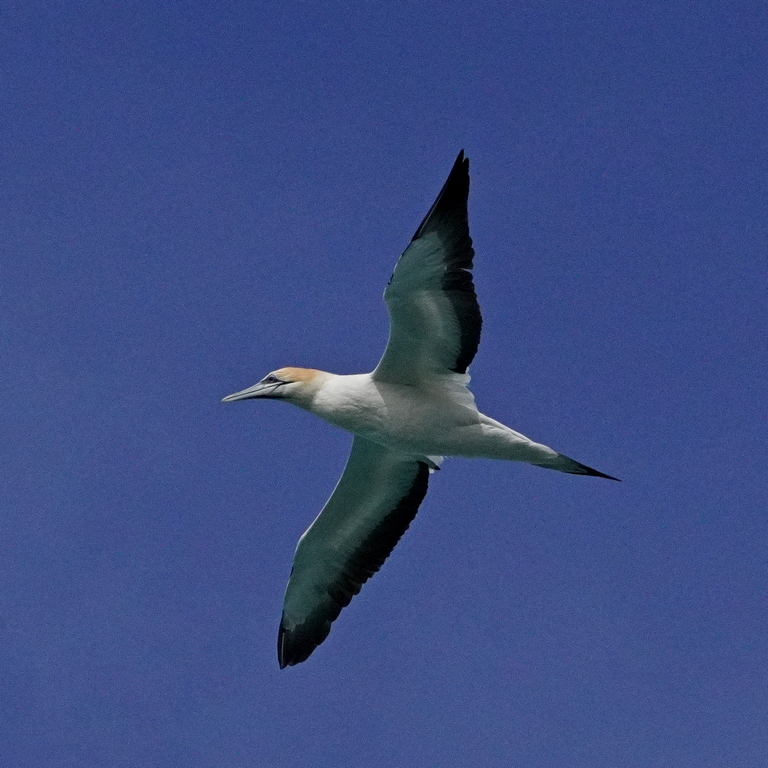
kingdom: Animalia
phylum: Chordata
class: Aves
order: Suliformes
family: Sulidae
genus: Morus
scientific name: Morus serrator
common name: Australasian gannet
